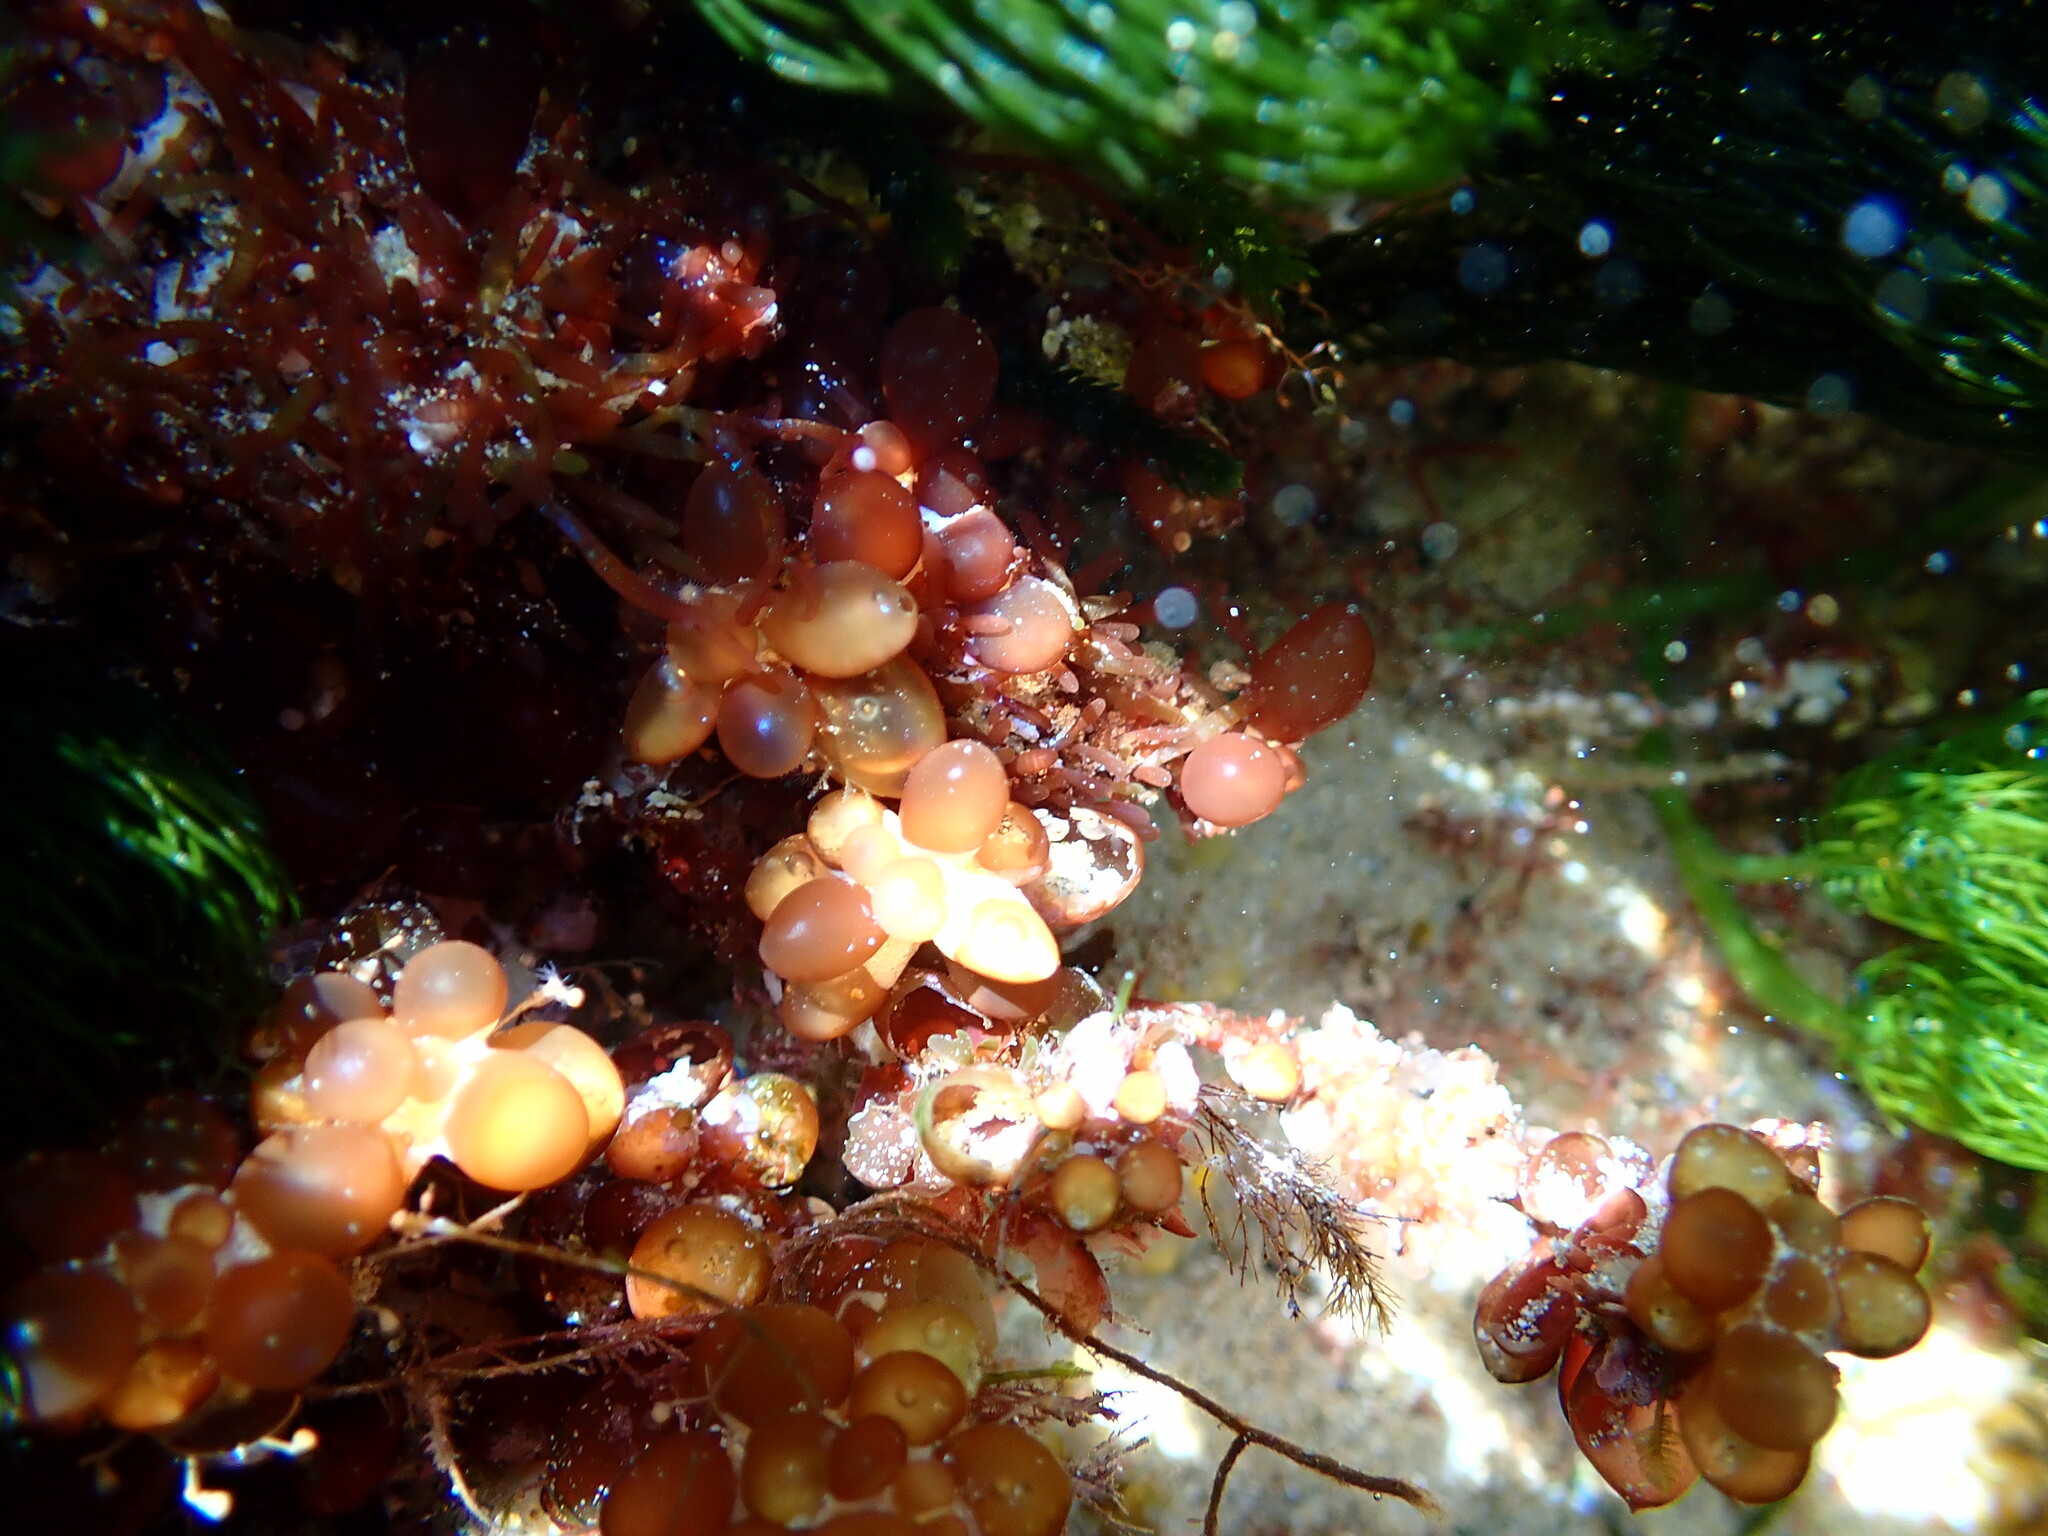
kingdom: Plantae
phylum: Rhodophyta
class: Florideophyceae
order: Rhodymeniales
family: Rhodymeniaceae
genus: Botryocladia
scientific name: Botryocladia
